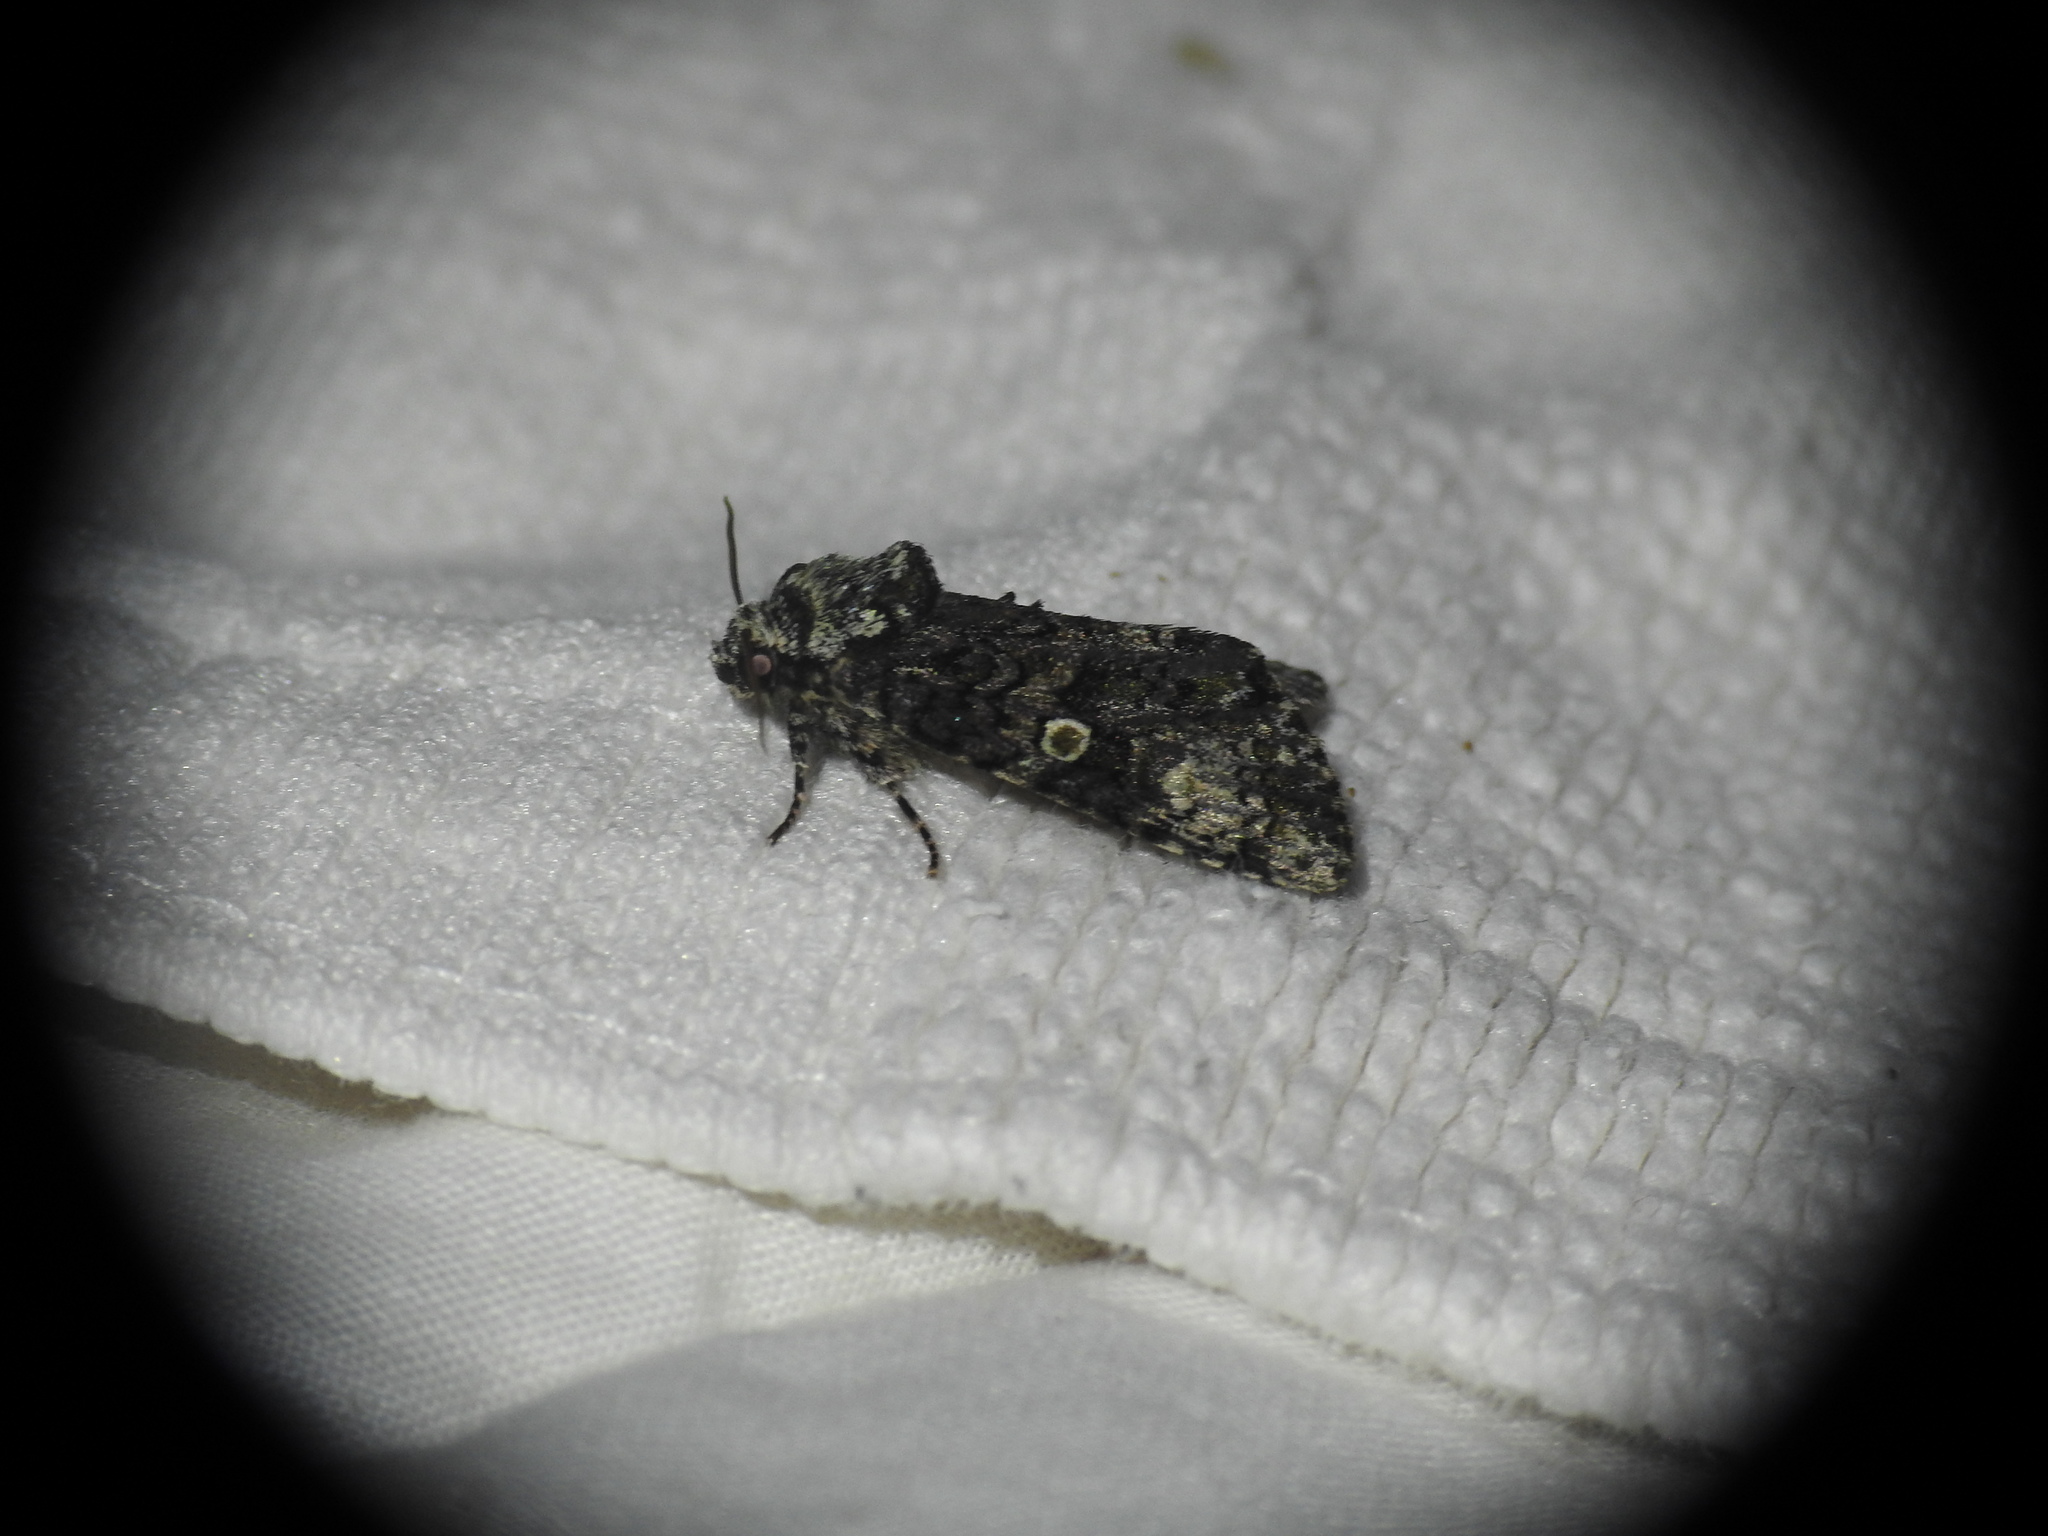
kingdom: Animalia
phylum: Arthropoda
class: Insecta
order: Lepidoptera
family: Noctuidae
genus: Craniophora
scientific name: Craniophora ligustri
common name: Coronet
